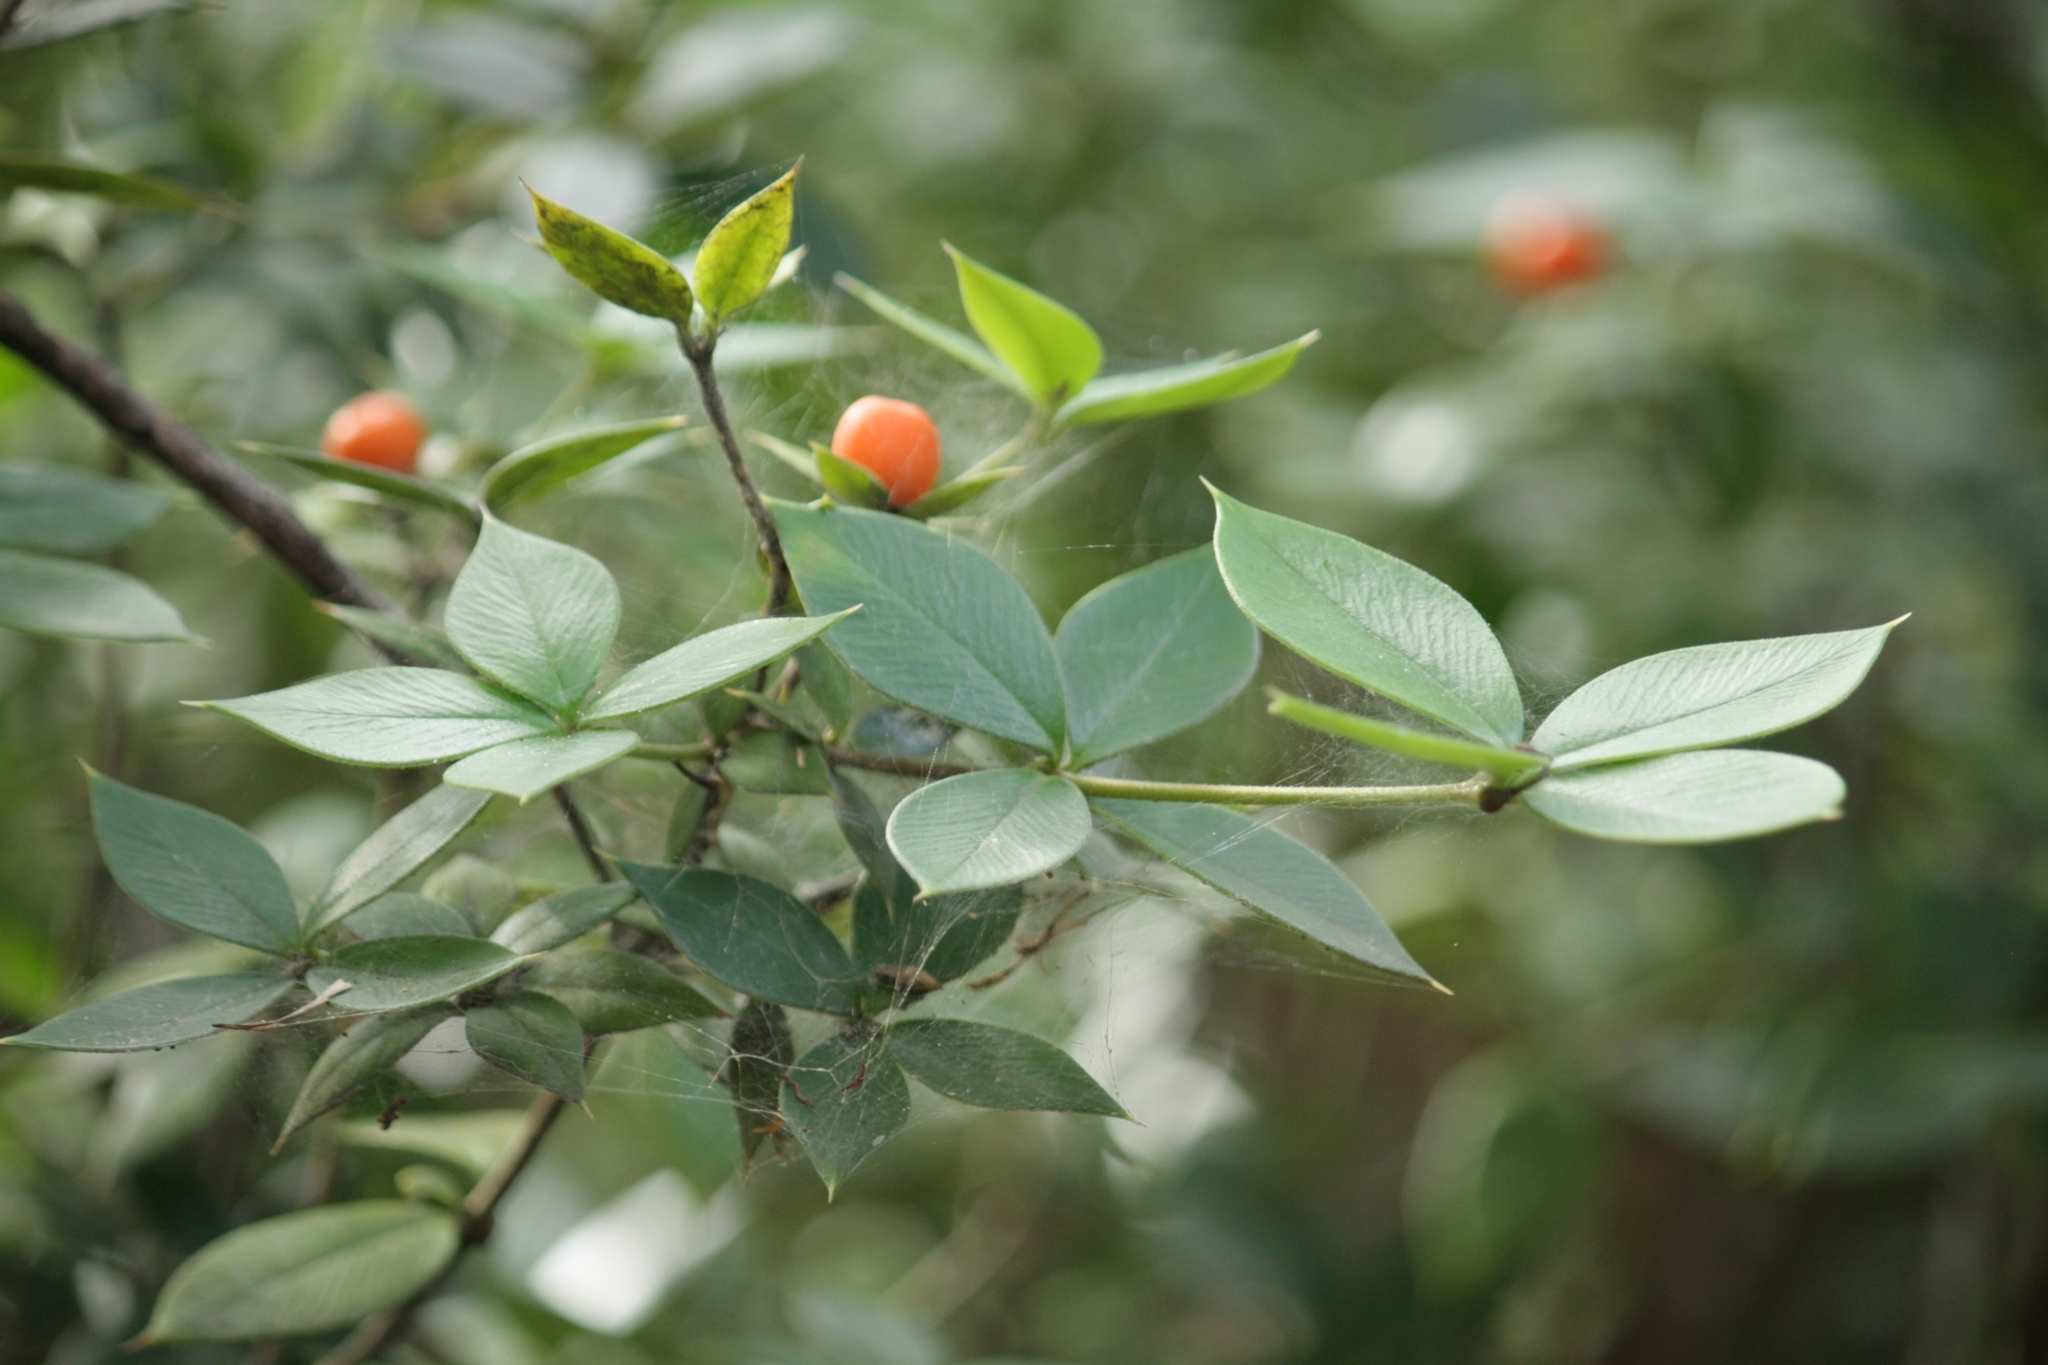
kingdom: Plantae
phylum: Tracheophyta
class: Magnoliopsida
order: Gentianales
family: Apocynaceae
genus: Alyxia
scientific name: Alyxia ruscifolia
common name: Chainfruit
